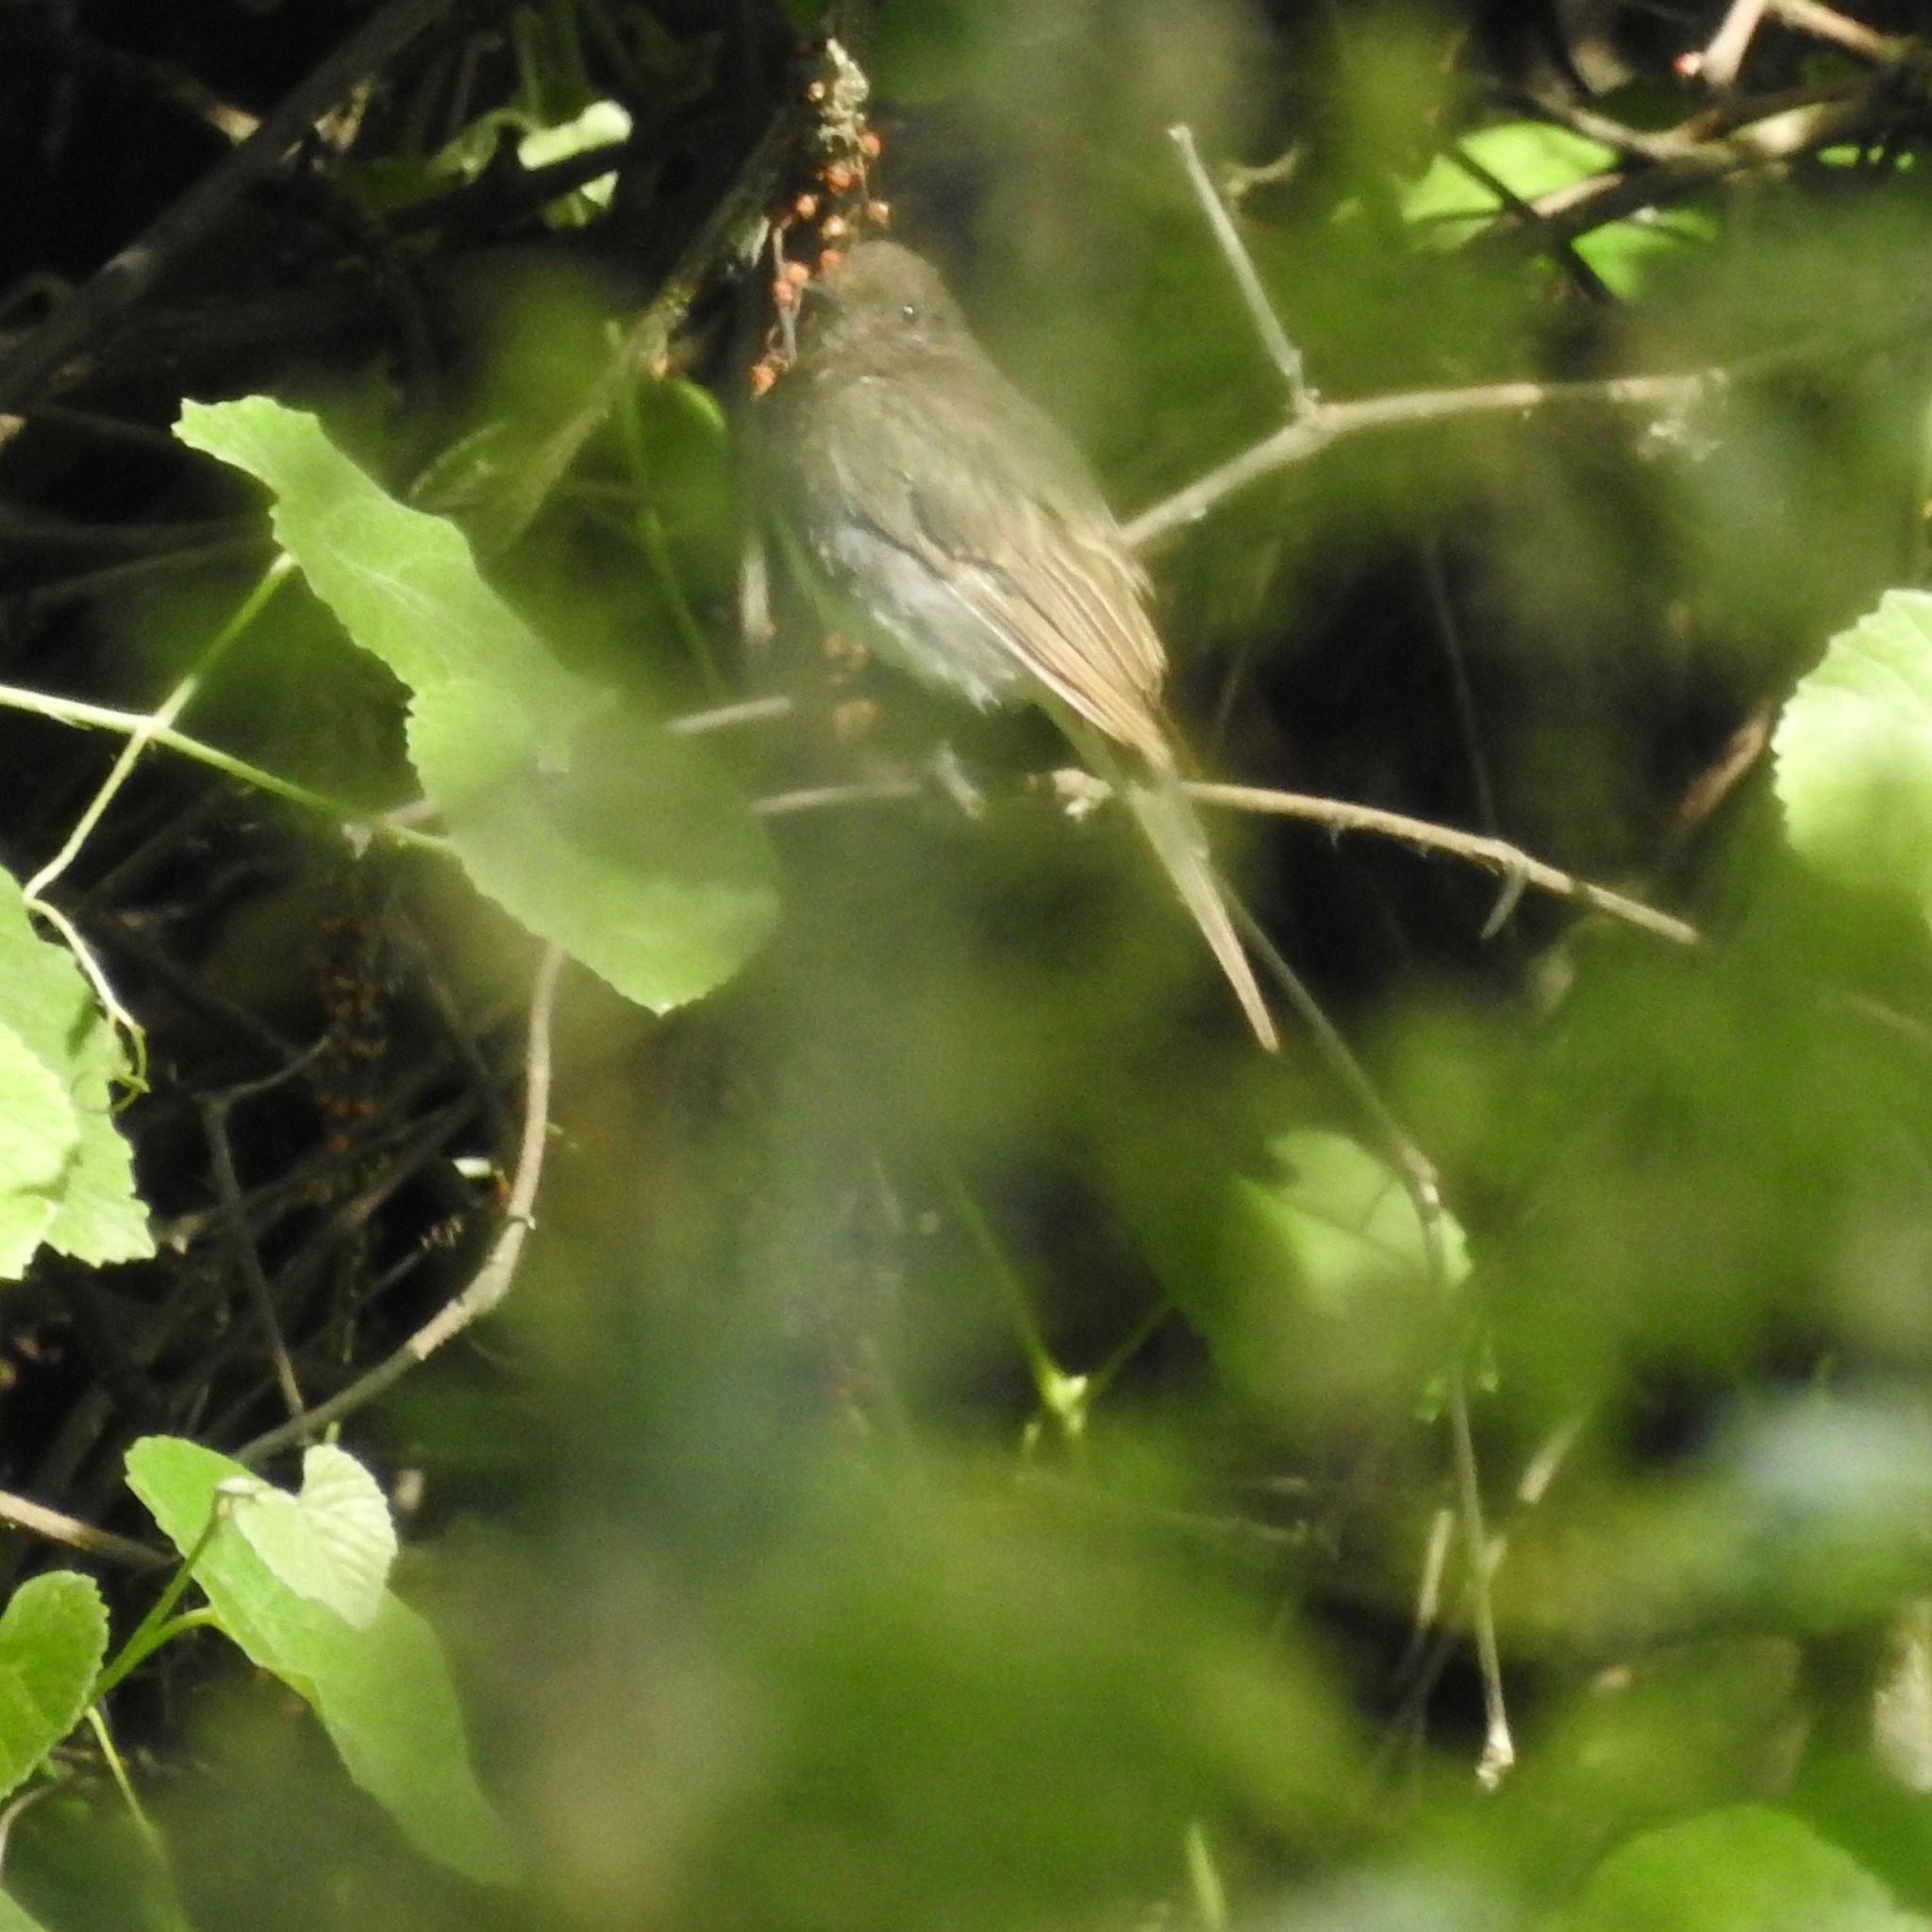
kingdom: Animalia
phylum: Chordata
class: Aves
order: Passeriformes
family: Tyrannidae
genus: Sayornis
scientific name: Sayornis nigricans
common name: Black phoebe
